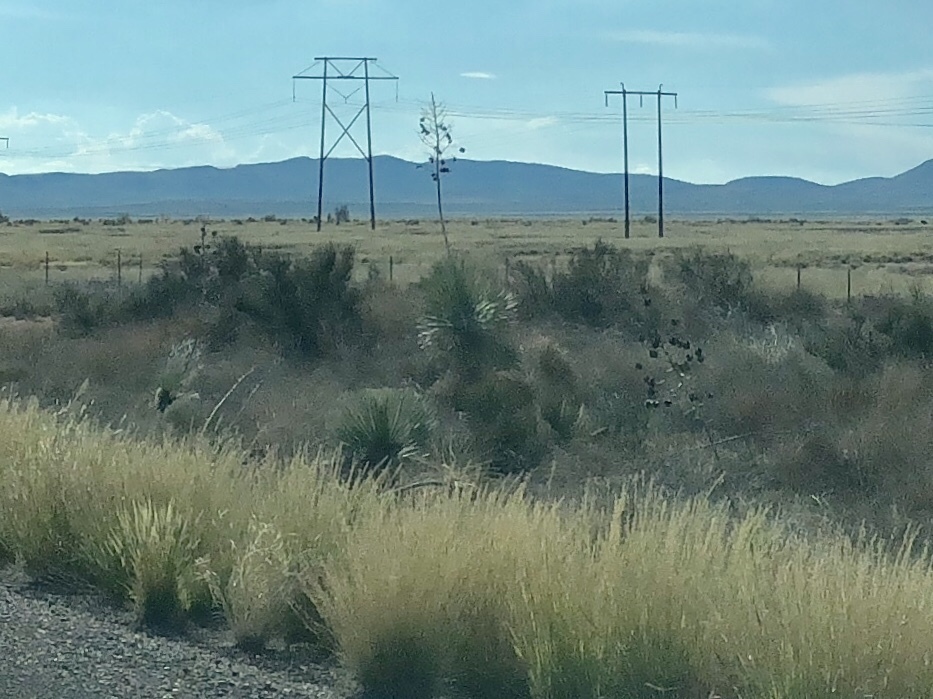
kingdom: Plantae
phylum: Tracheophyta
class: Liliopsida
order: Asparagales
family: Asparagaceae
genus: Yucca
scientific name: Yucca elata
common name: Palmella
